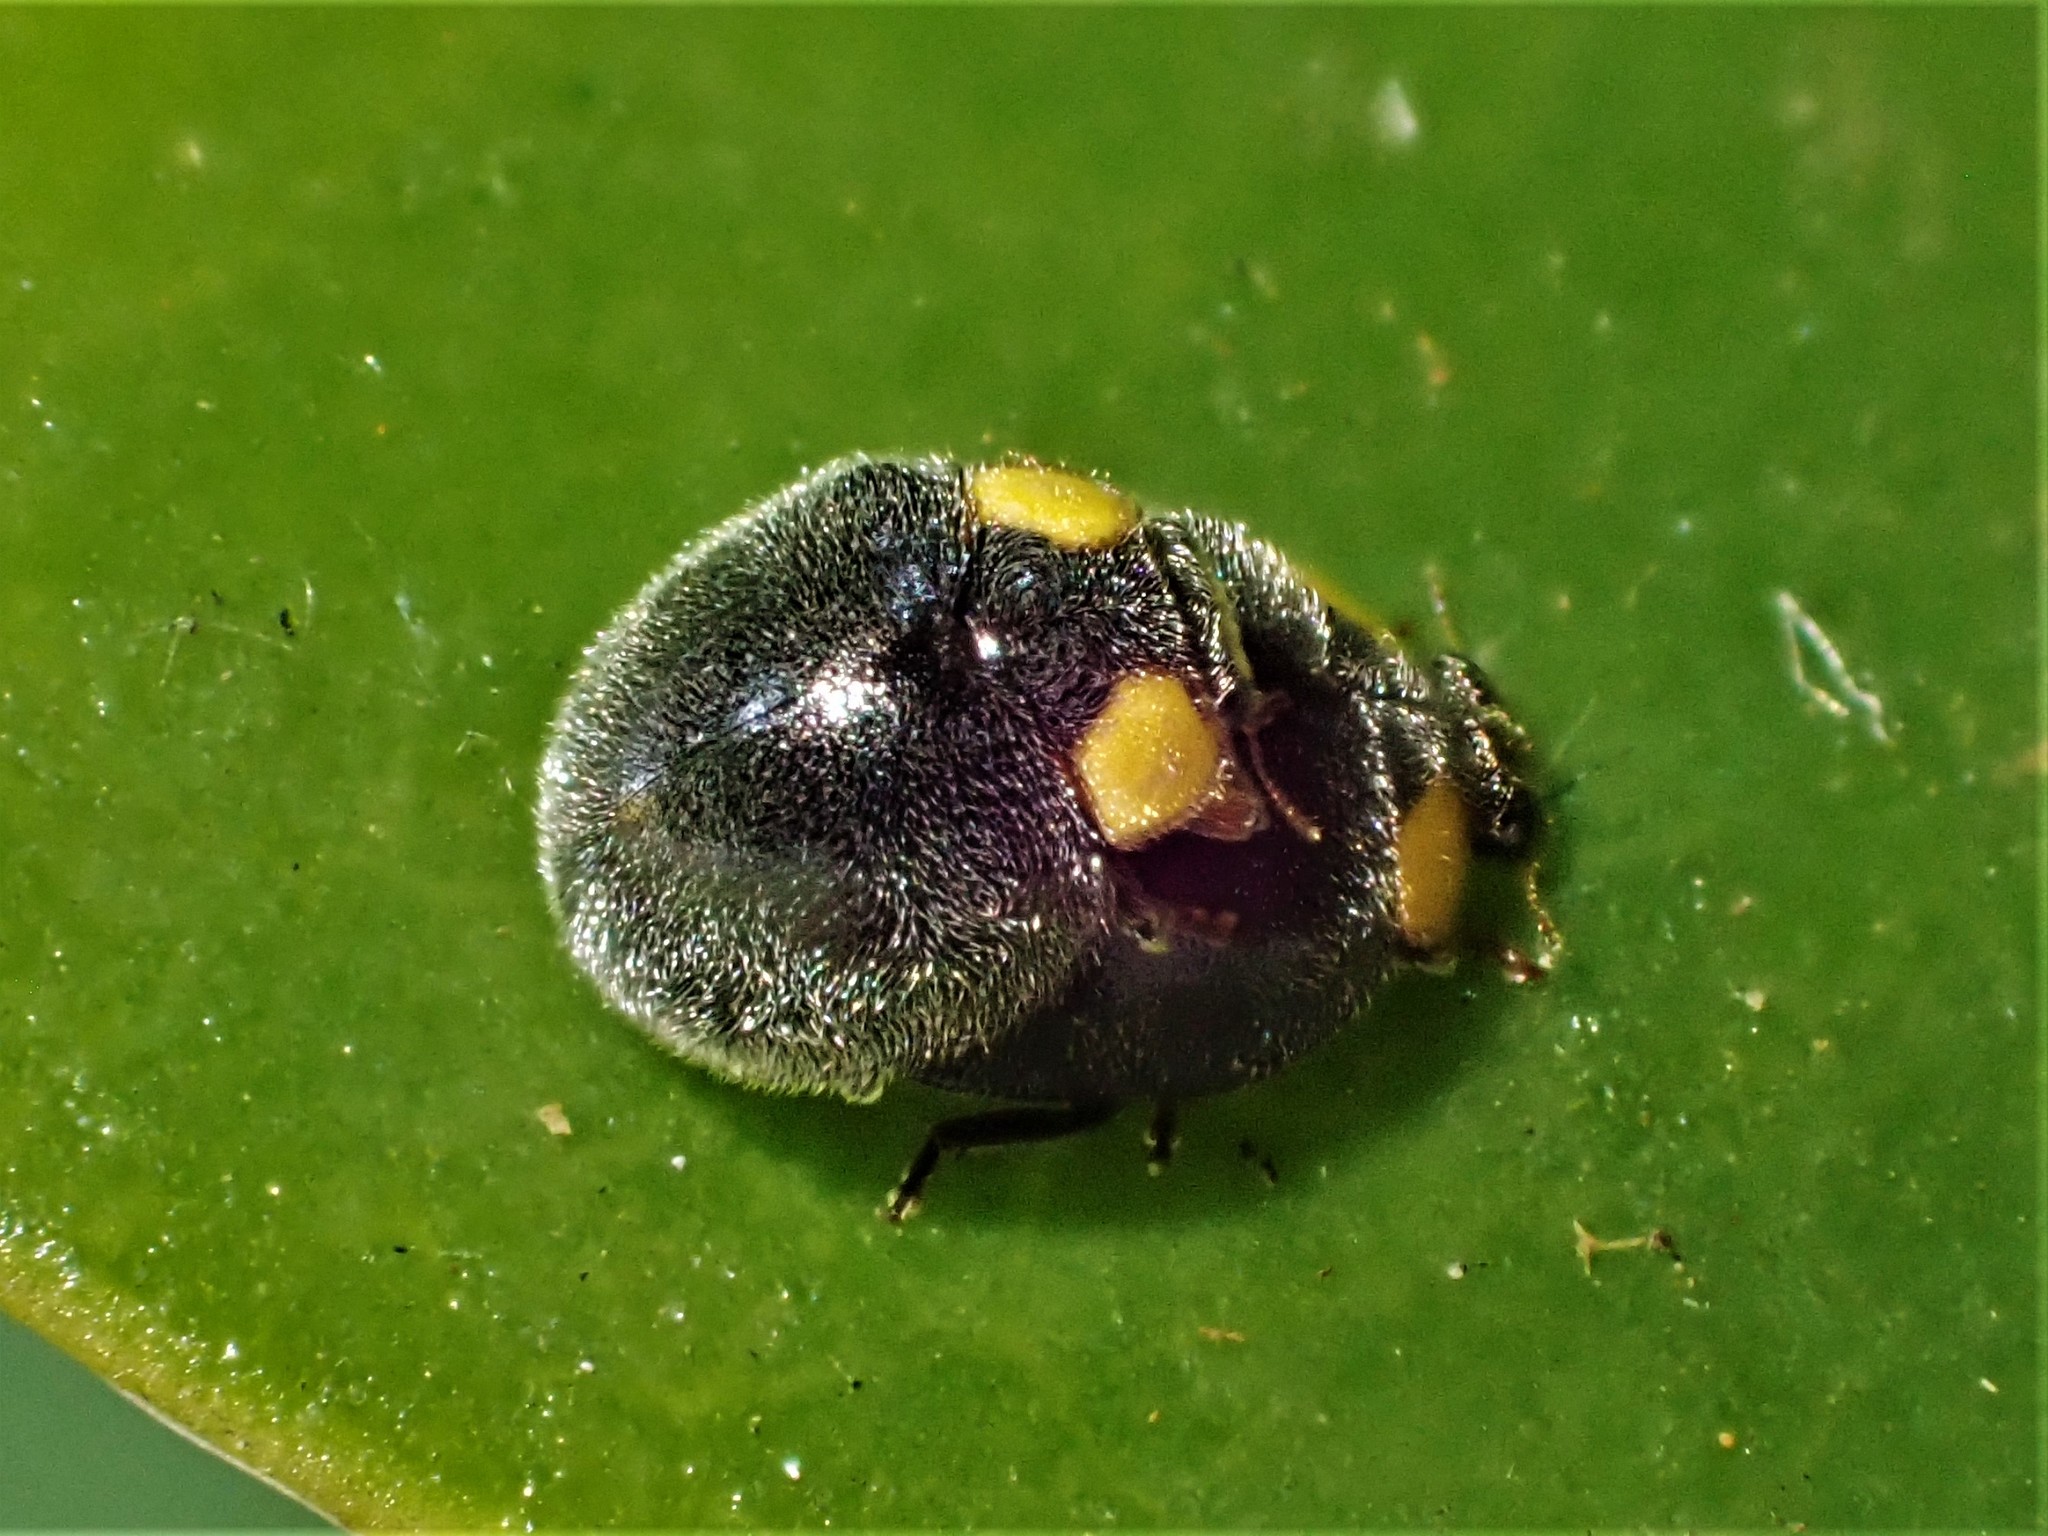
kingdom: Animalia
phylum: Arthropoda
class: Insecta
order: Coleoptera
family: Coccinellidae
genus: Scymnodes
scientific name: Scymnodes lividigaster
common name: Yellowshouldered lady beetle
